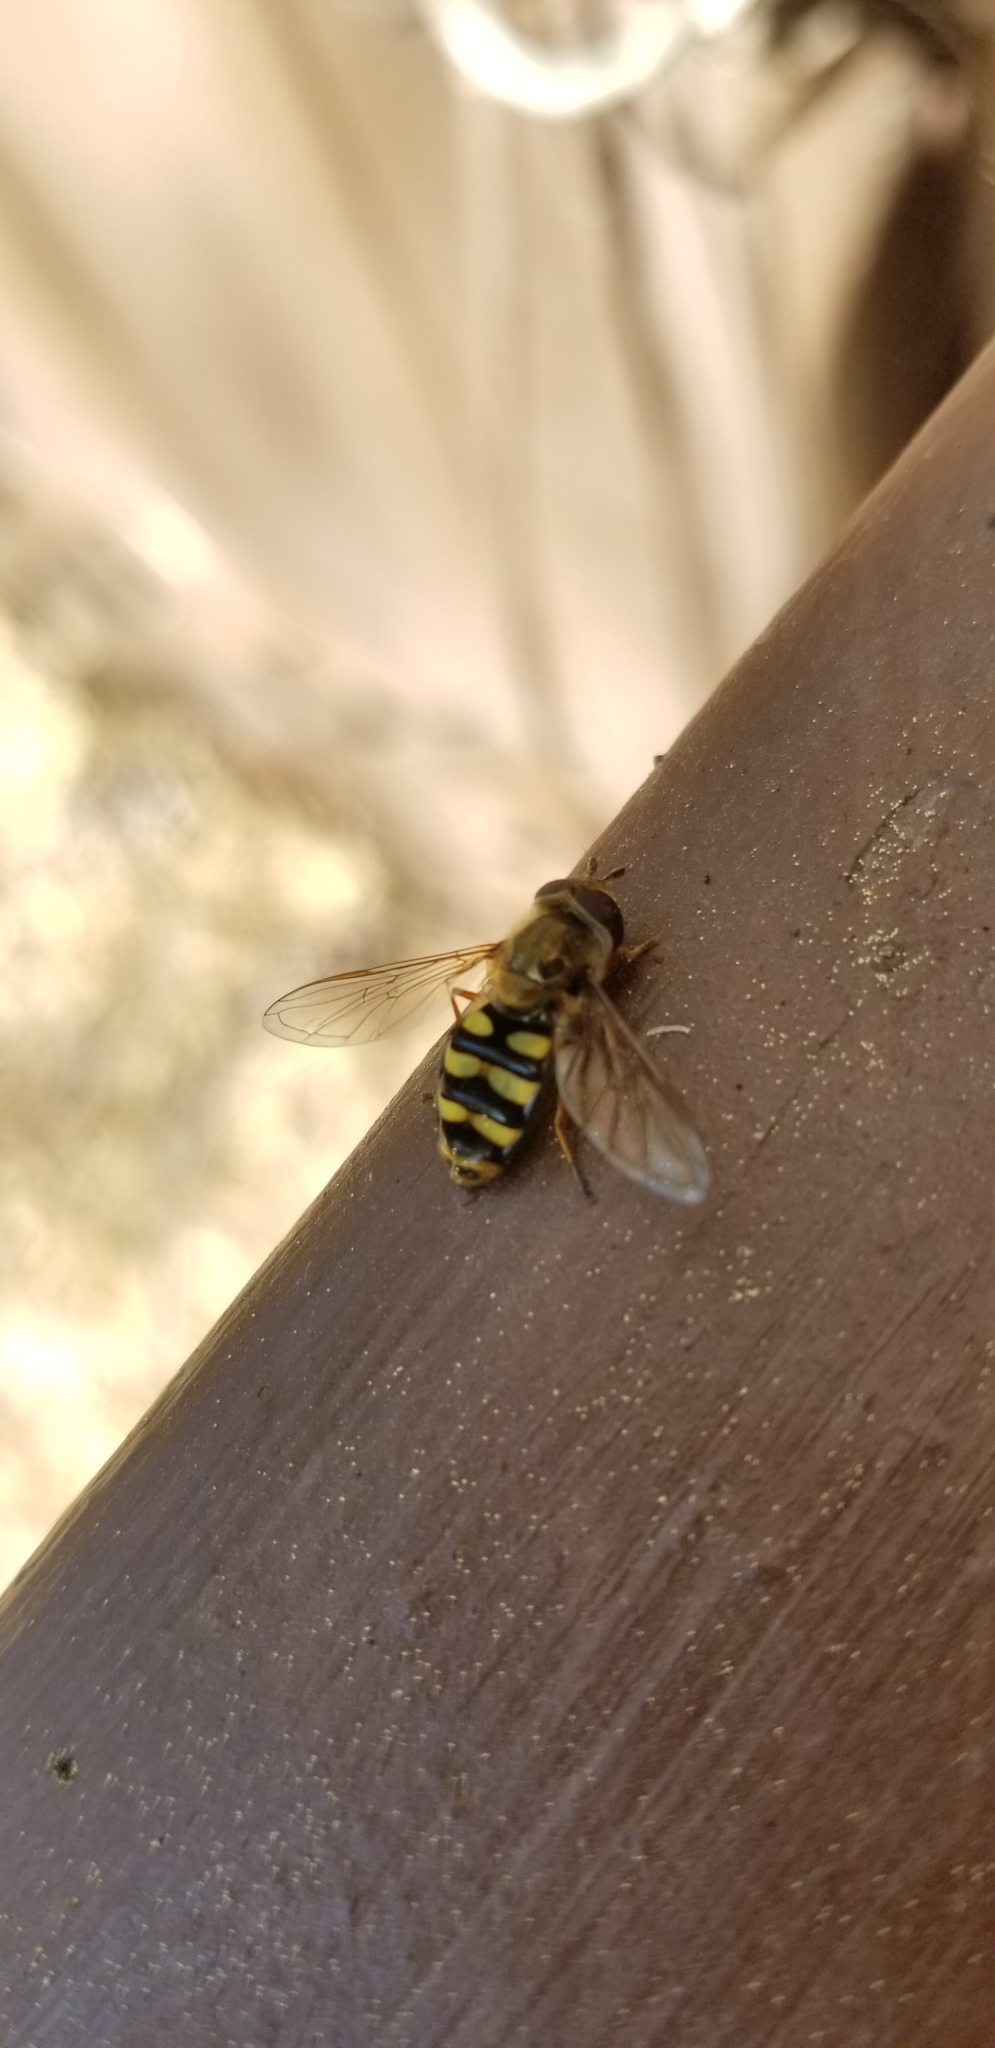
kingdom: Animalia
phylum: Arthropoda
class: Insecta
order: Diptera
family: Syrphidae
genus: Eupeodes
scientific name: Eupeodes fumipennis
